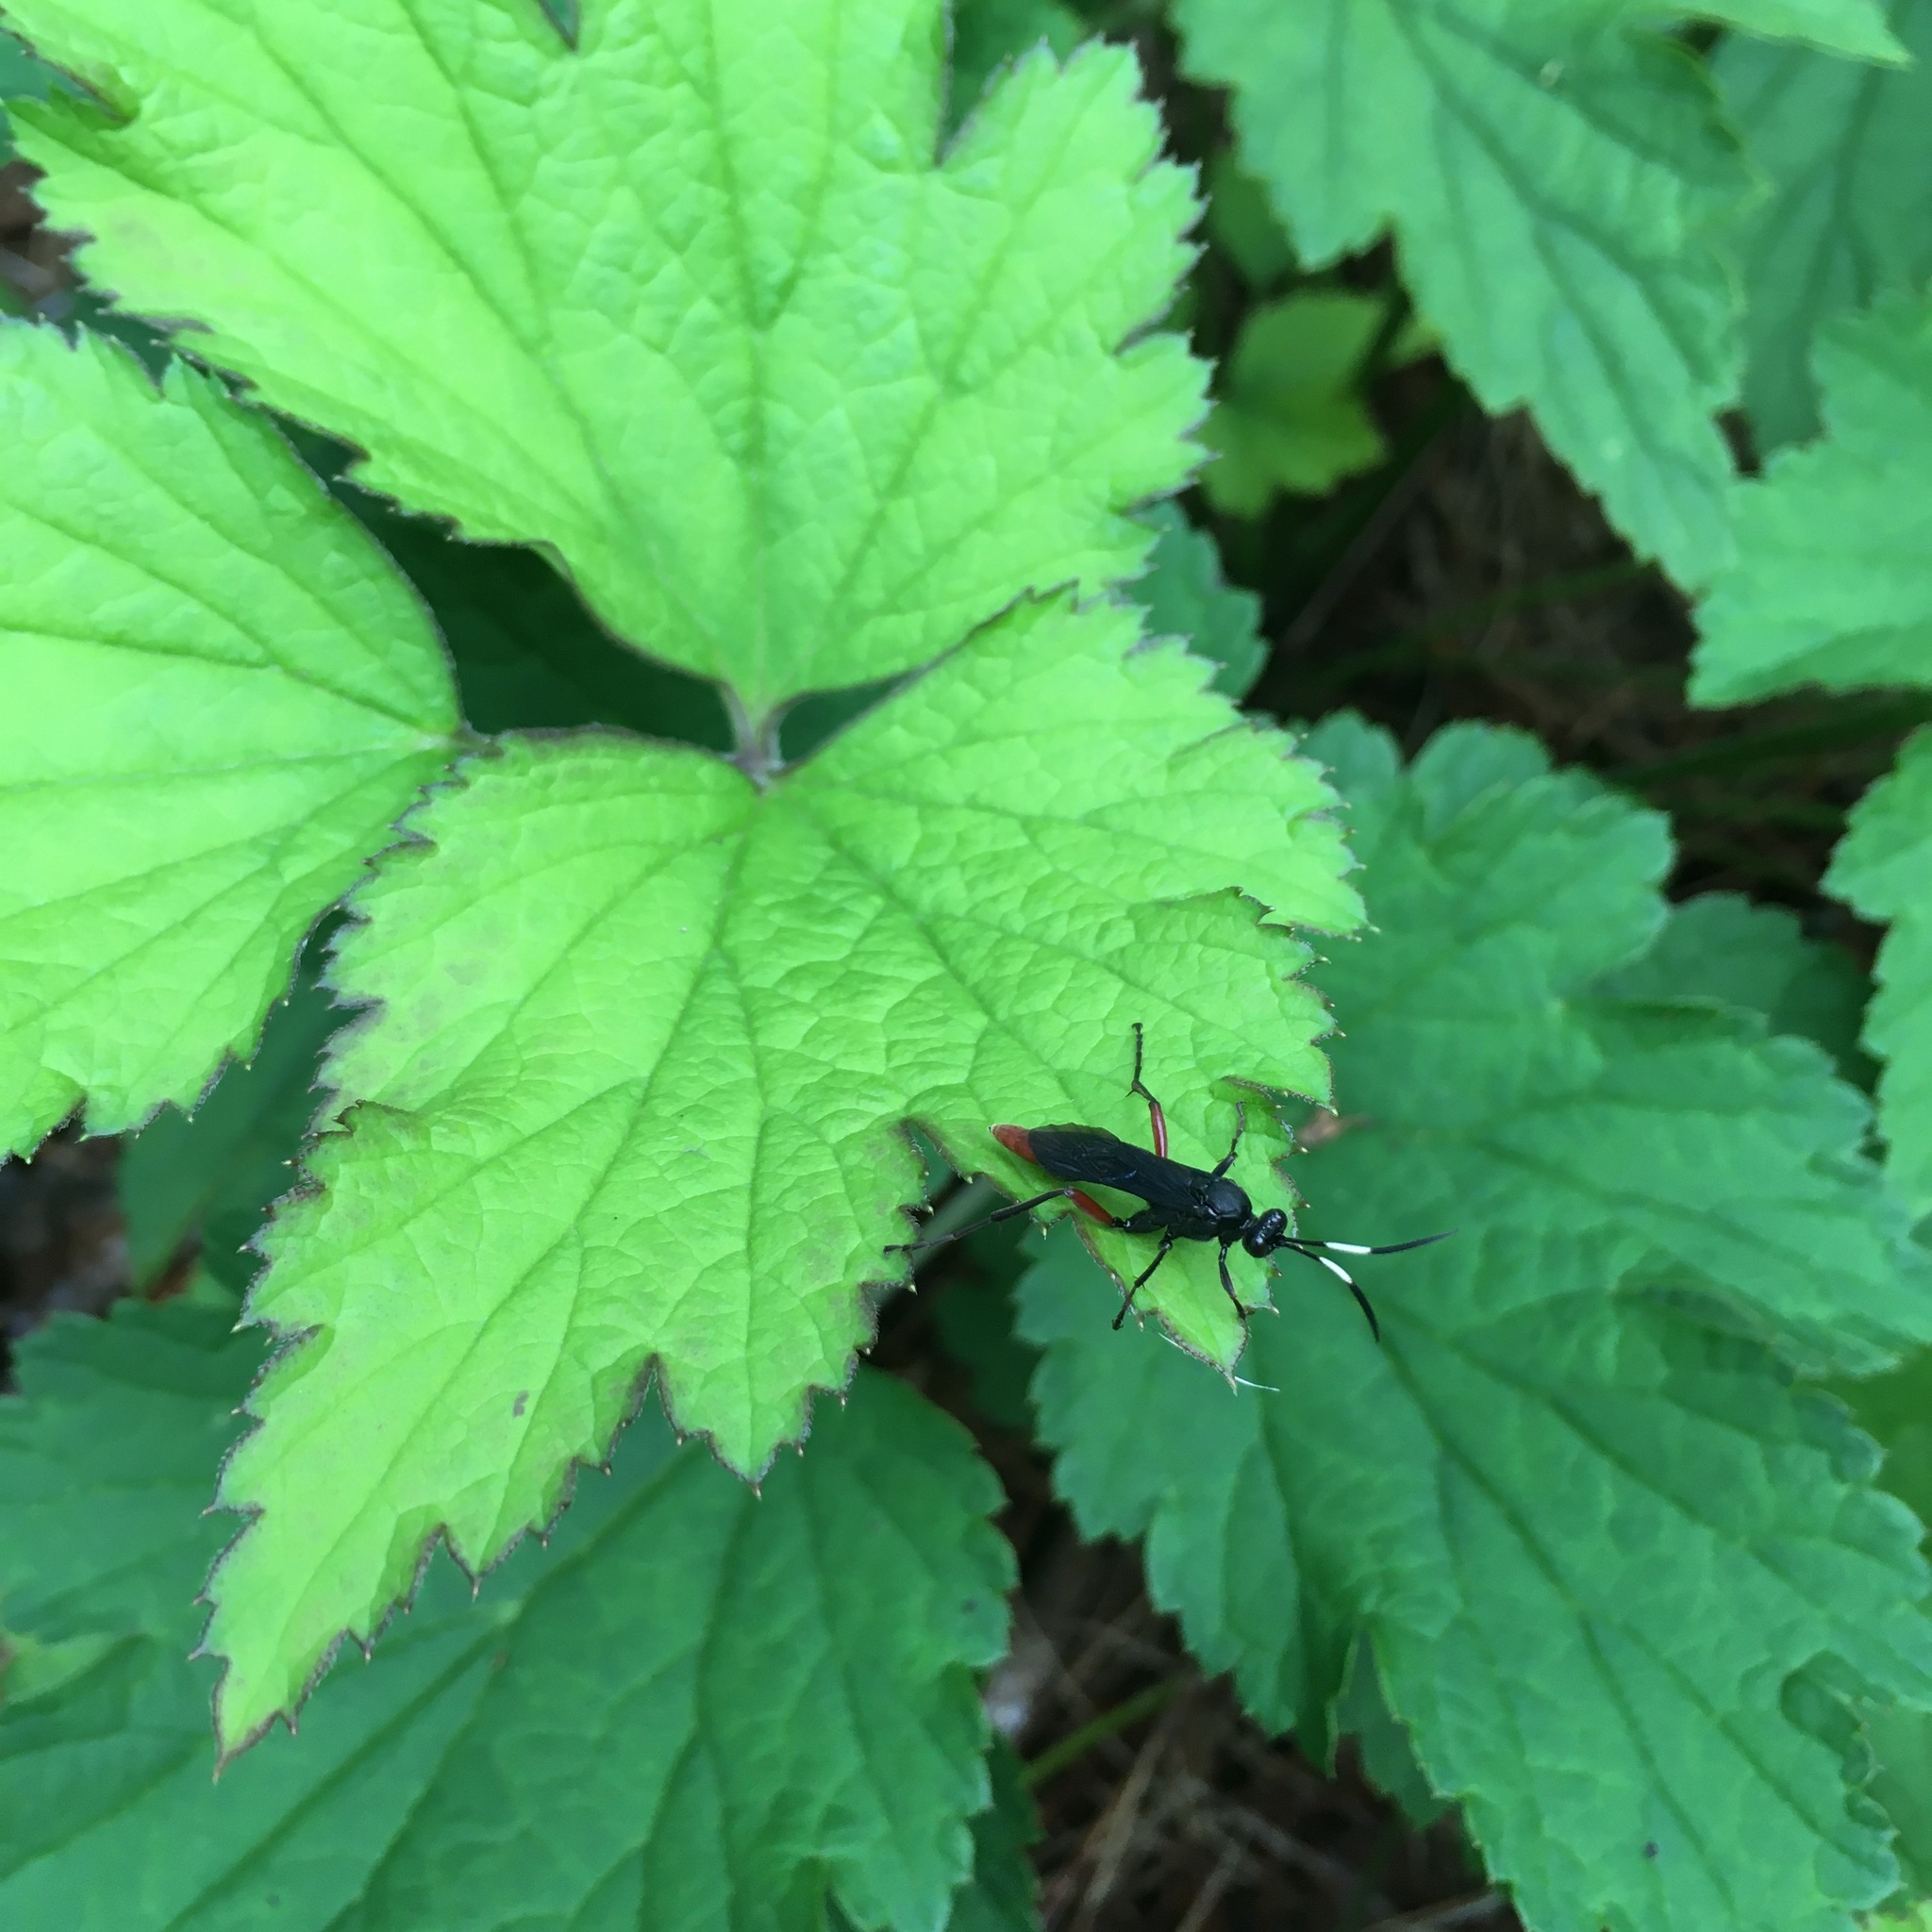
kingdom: Animalia
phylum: Arthropoda
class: Insecta
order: Hymenoptera
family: Ichneumonidae
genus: Limonethe
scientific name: Limonethe maurator
